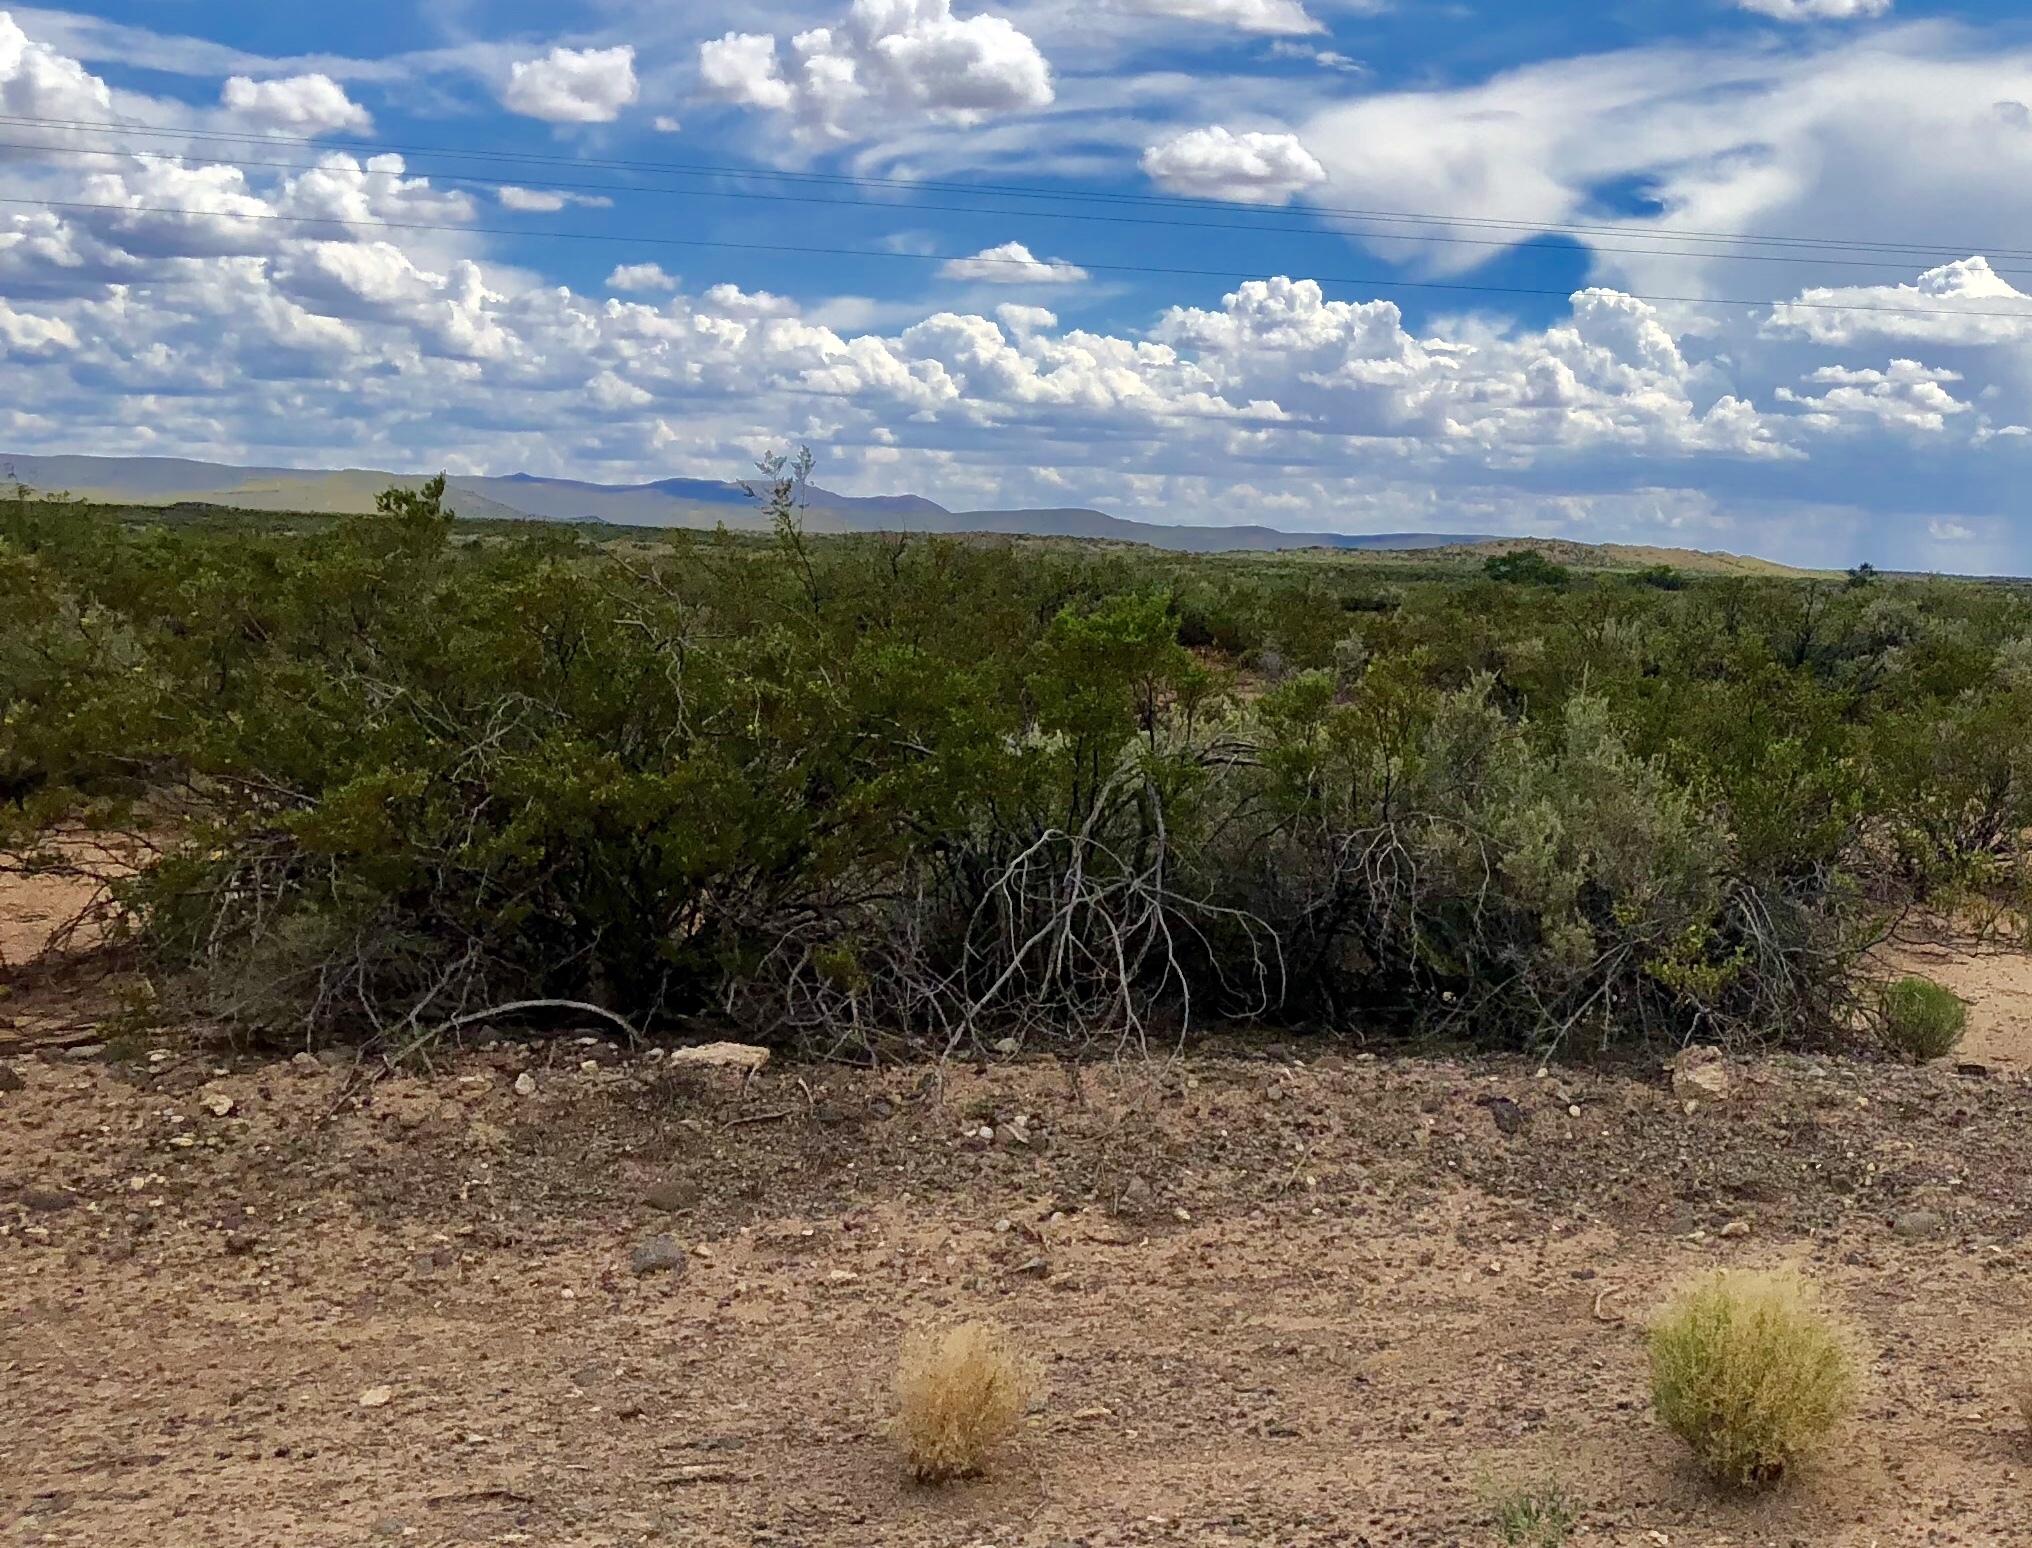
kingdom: Plantae
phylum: Tracheophyta
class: Magnoliopsida
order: Zygophyllales
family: Zygophyllaceae
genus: Larrea
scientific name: Larrea tridentata
